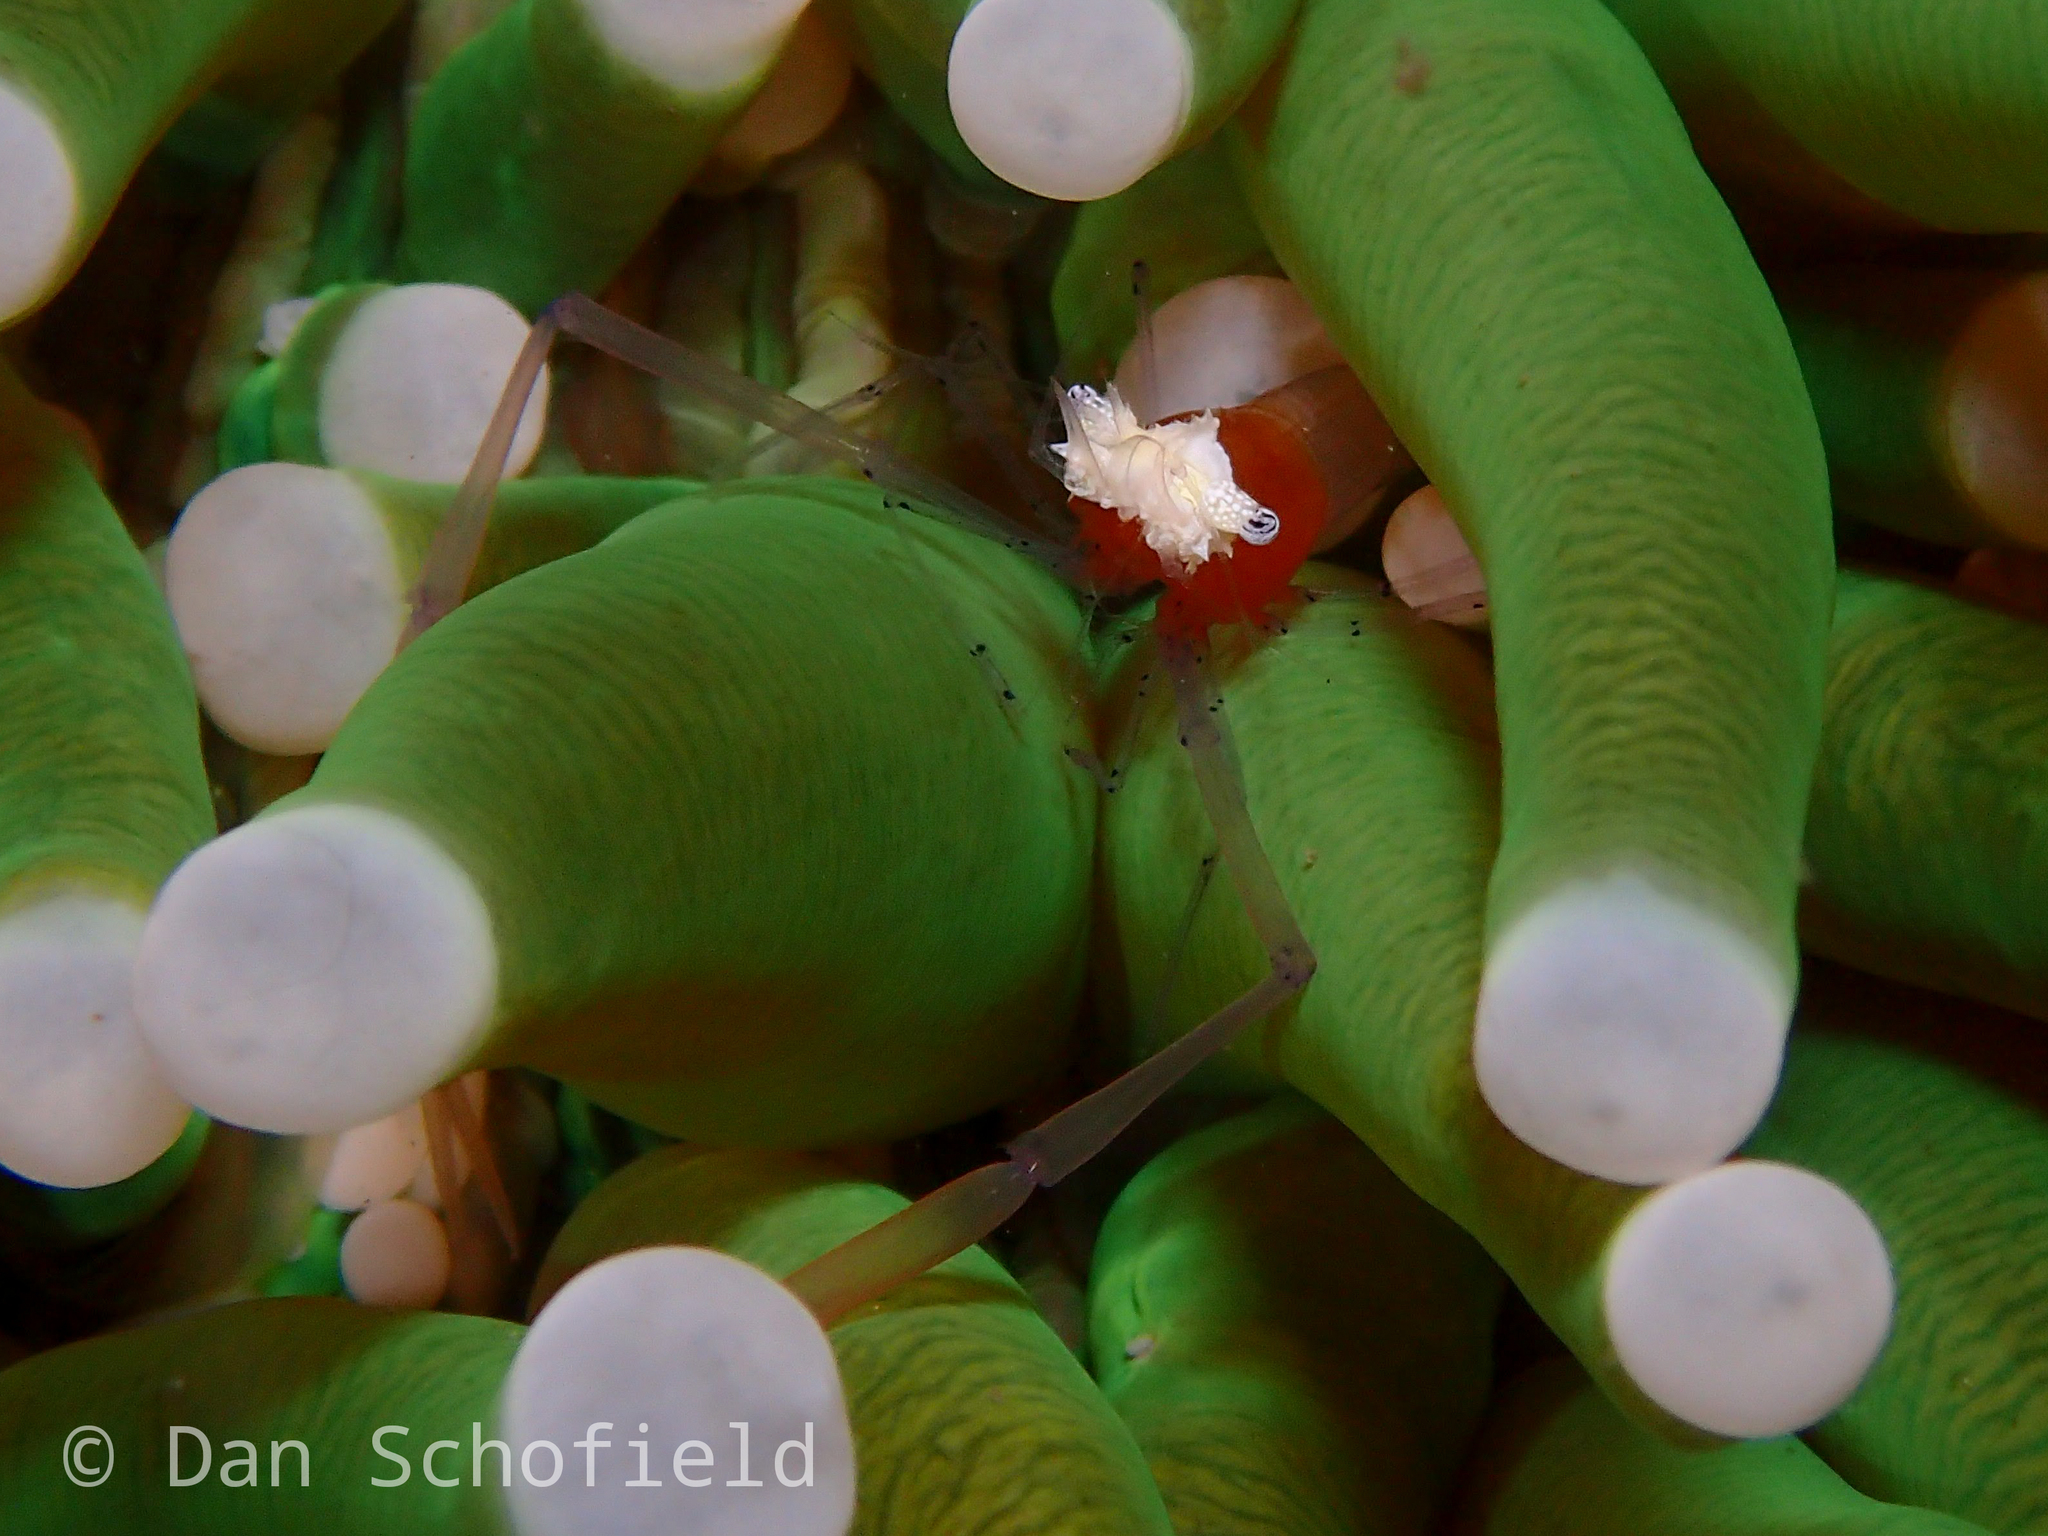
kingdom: Animalia
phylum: Arthropoda
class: Malacostraca
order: Decapoda
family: Palaemonidae
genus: Cuapetes
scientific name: Cuapetes kororensis
